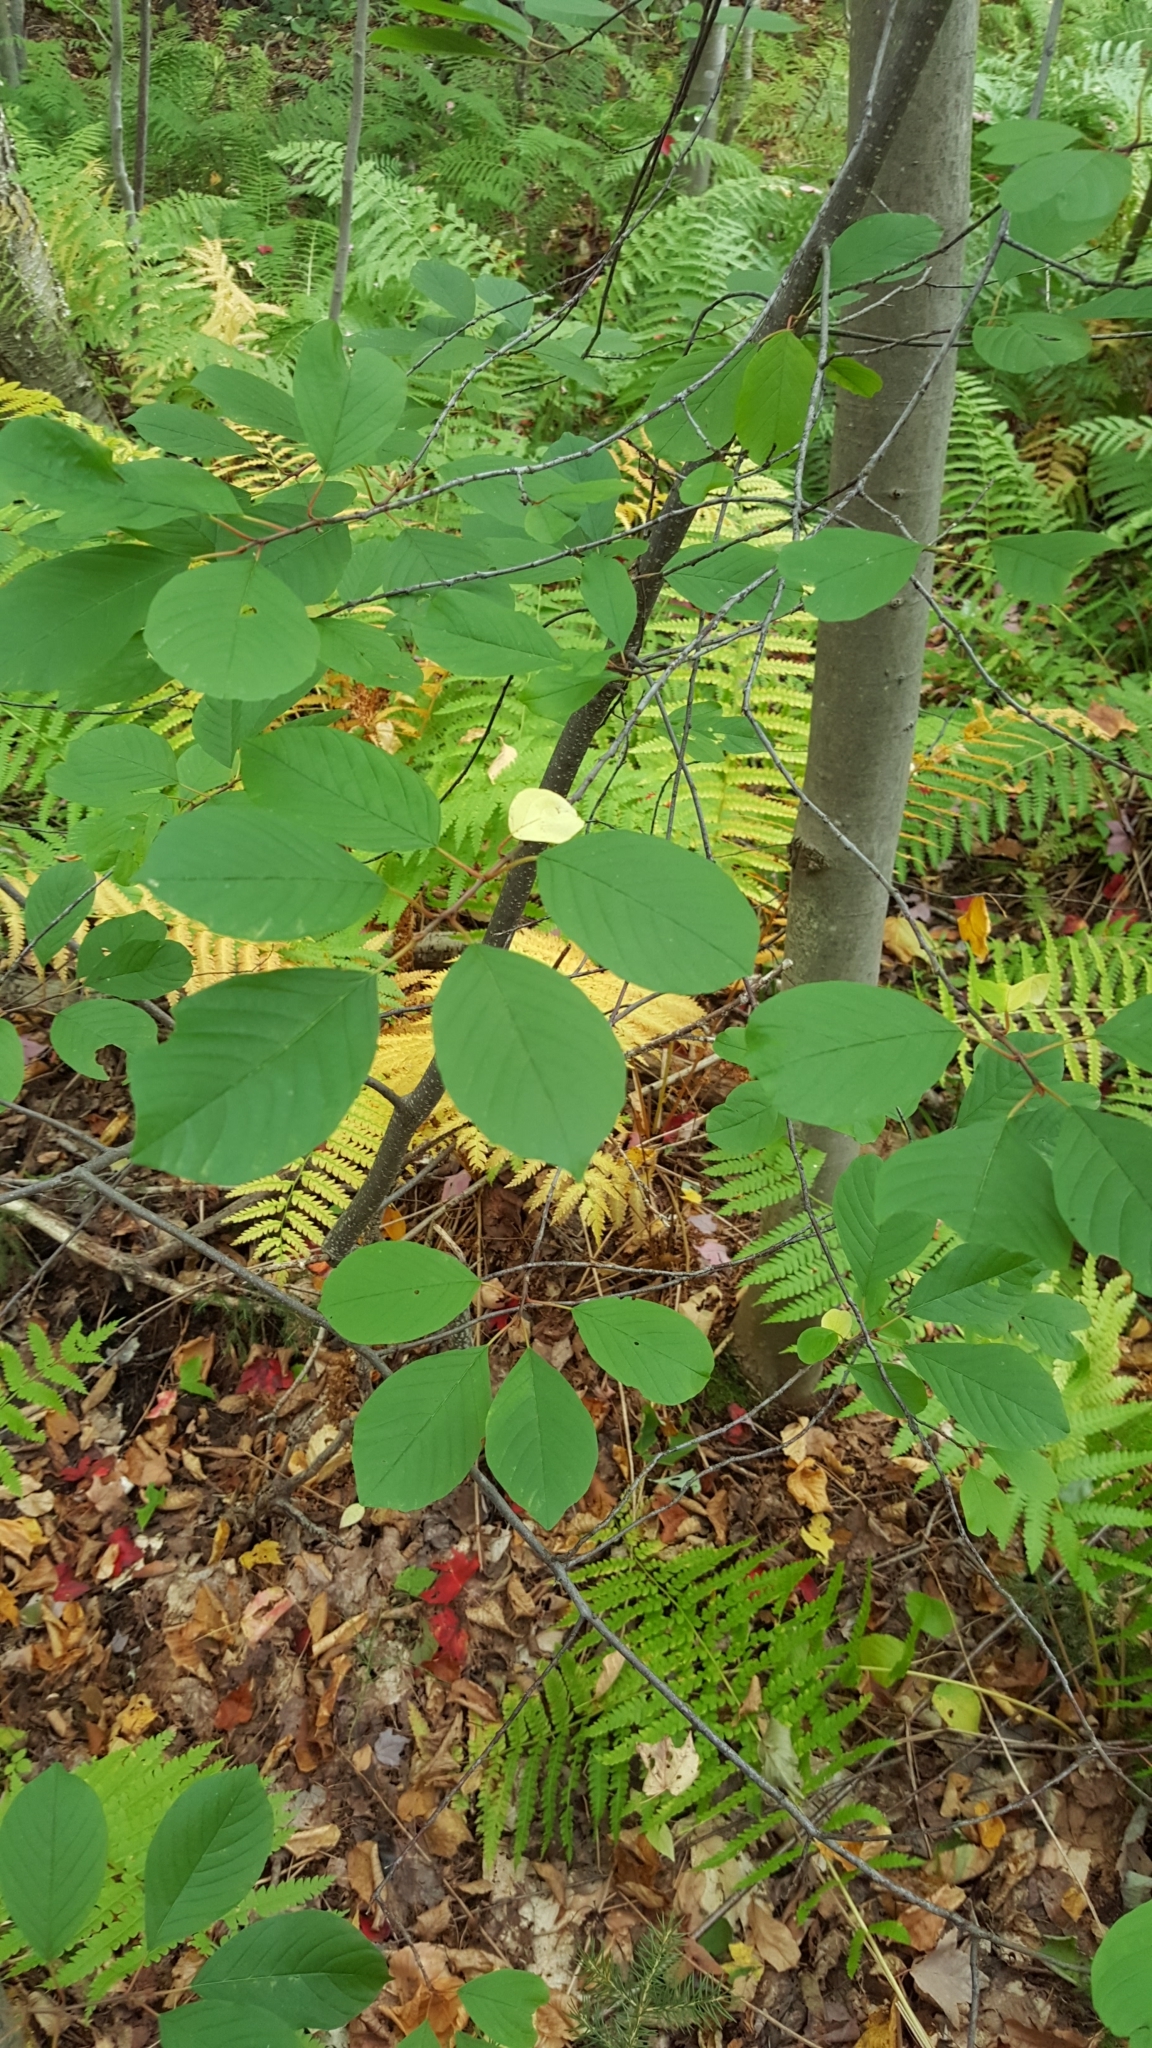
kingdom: Plantae
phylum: Tracheophyta
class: Magnoliopsida
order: Rosales
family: Rhamnaceae
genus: Frangula
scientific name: Frangula alnus
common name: Alder buckthorn
